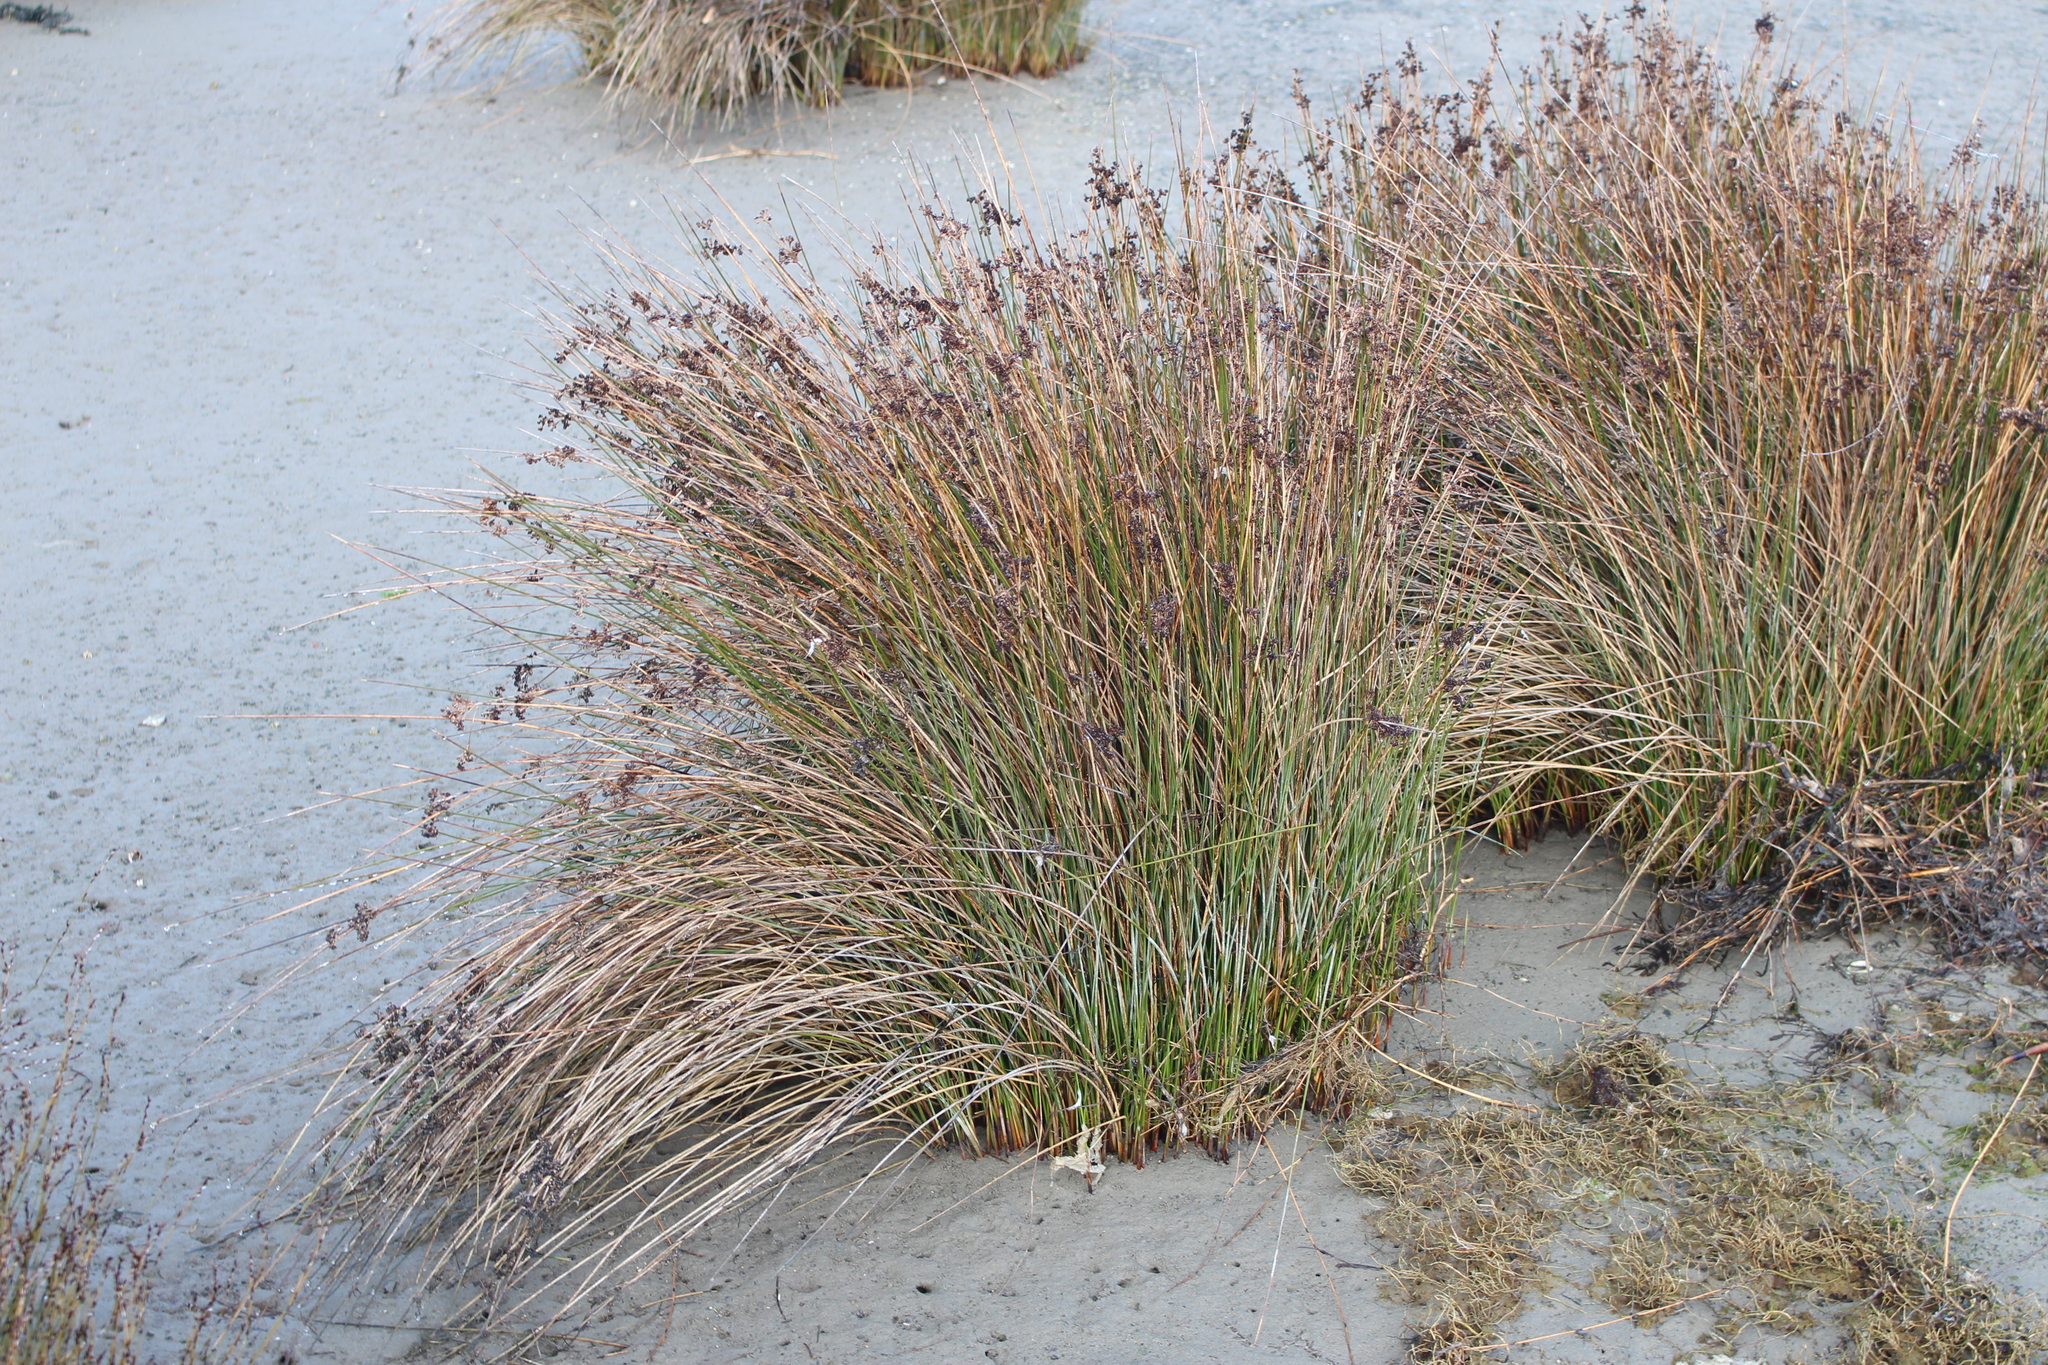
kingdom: Plantae
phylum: Tracheophyta
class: Liliopsida
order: Poales
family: Juncaceae
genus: Juncus
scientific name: Juncus kraussii
